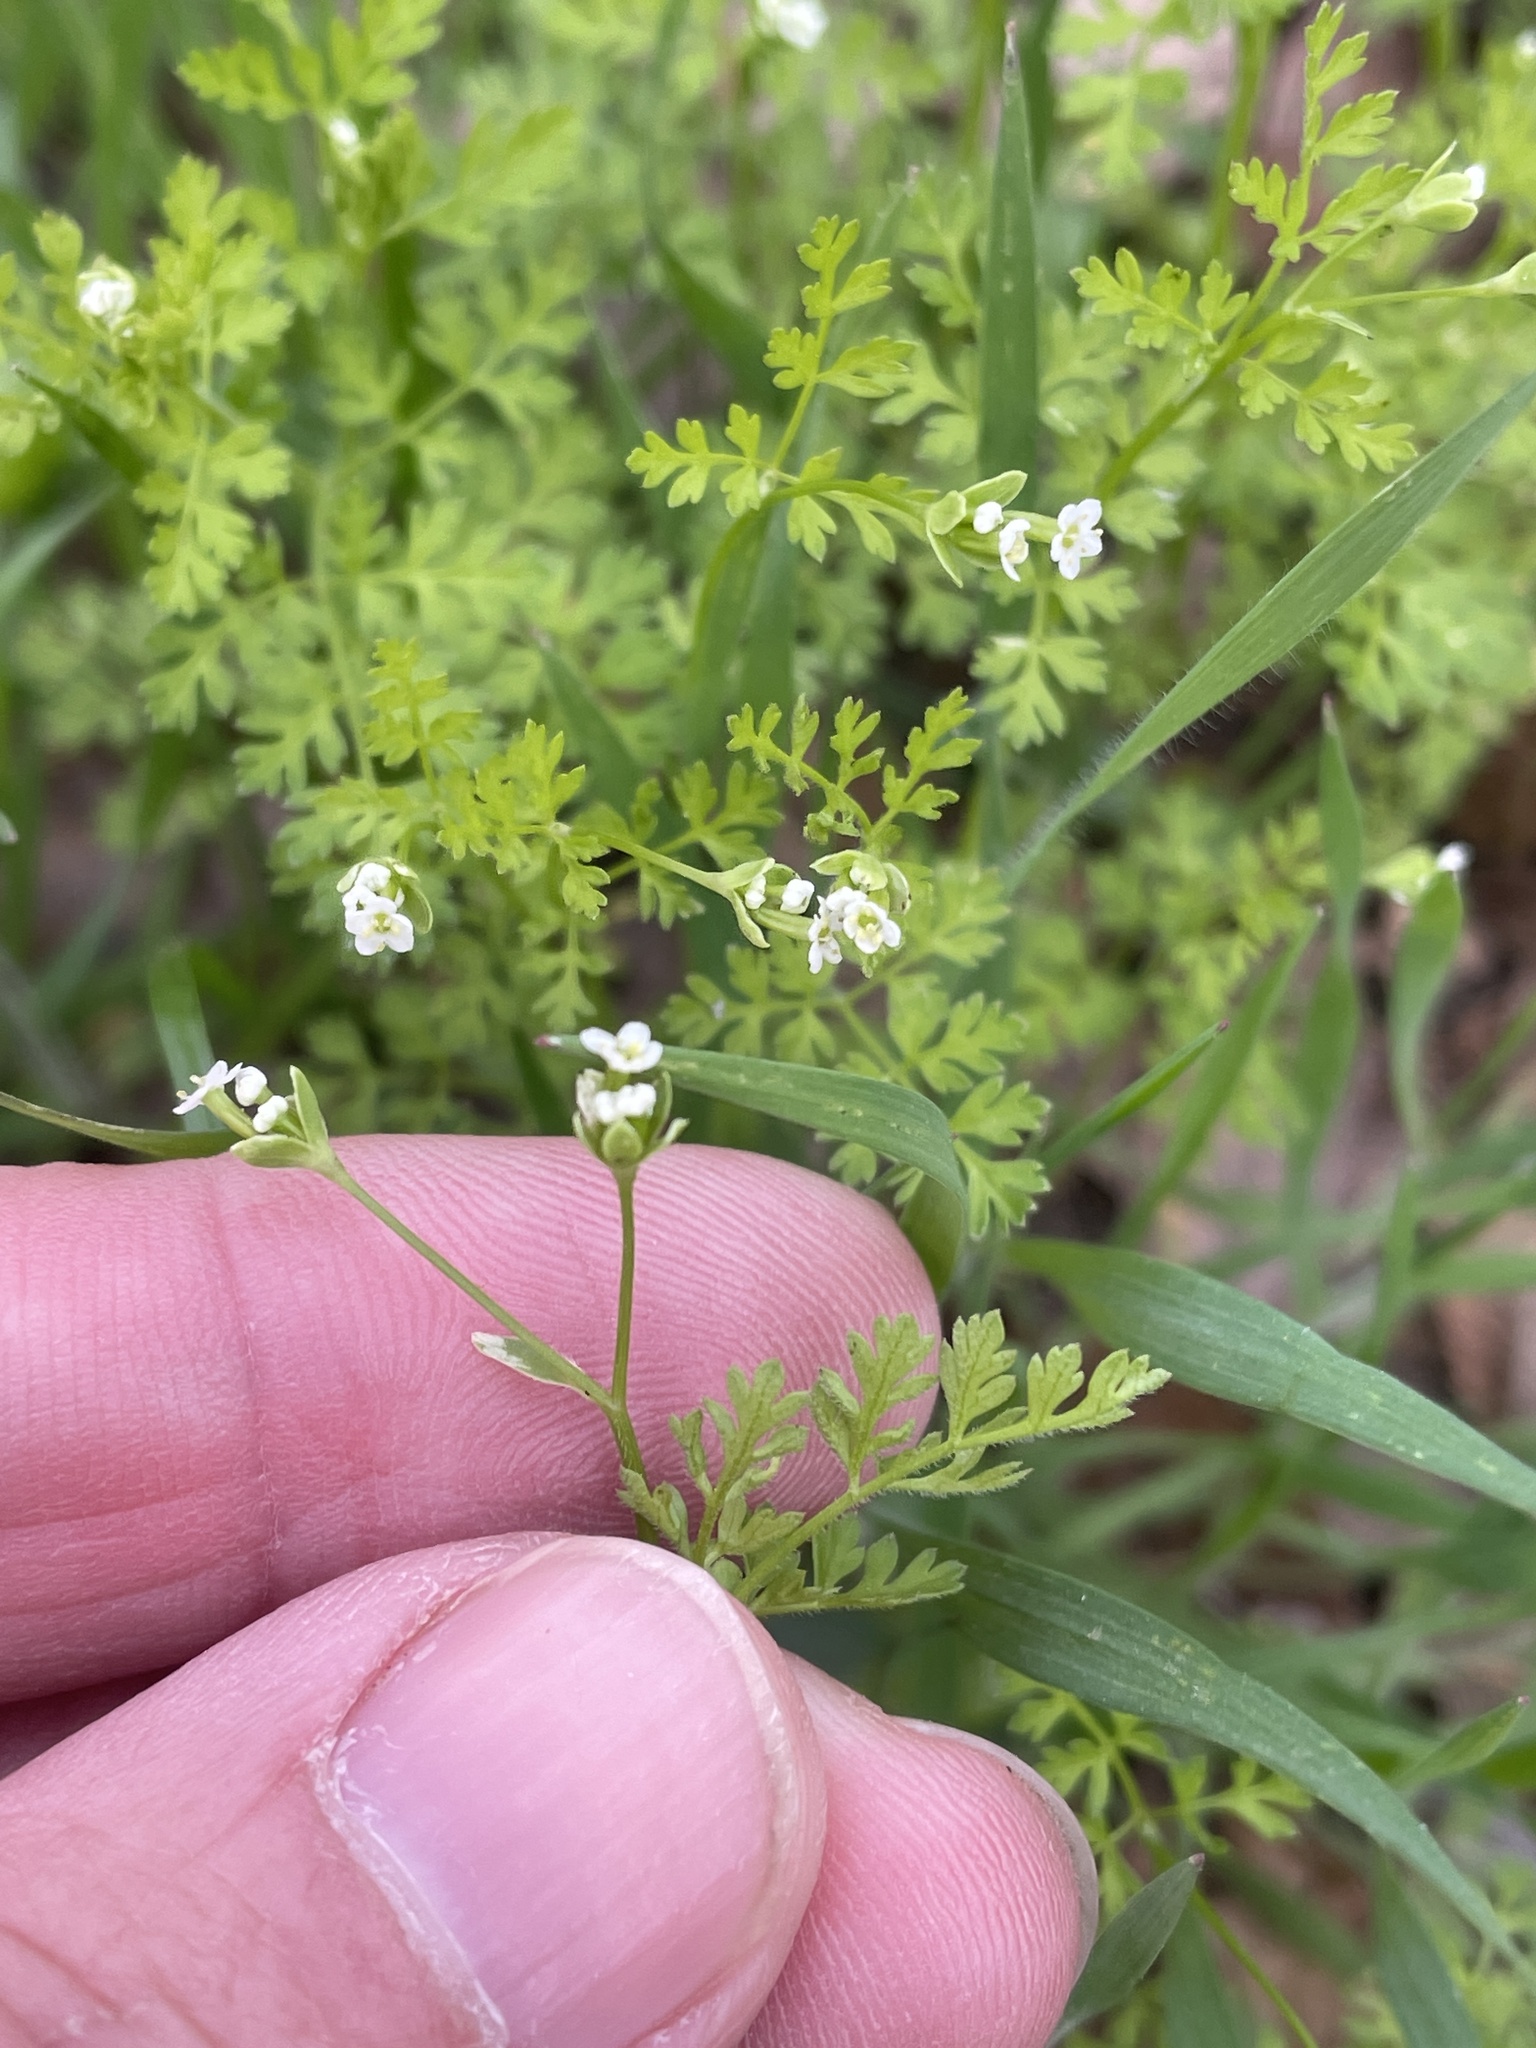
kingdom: Plantae
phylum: Tracheophyta
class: Magnoliopsida
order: Apiales
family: Apiaceae
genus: Chaerophyllum
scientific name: Chaerophyllum tainturieri
